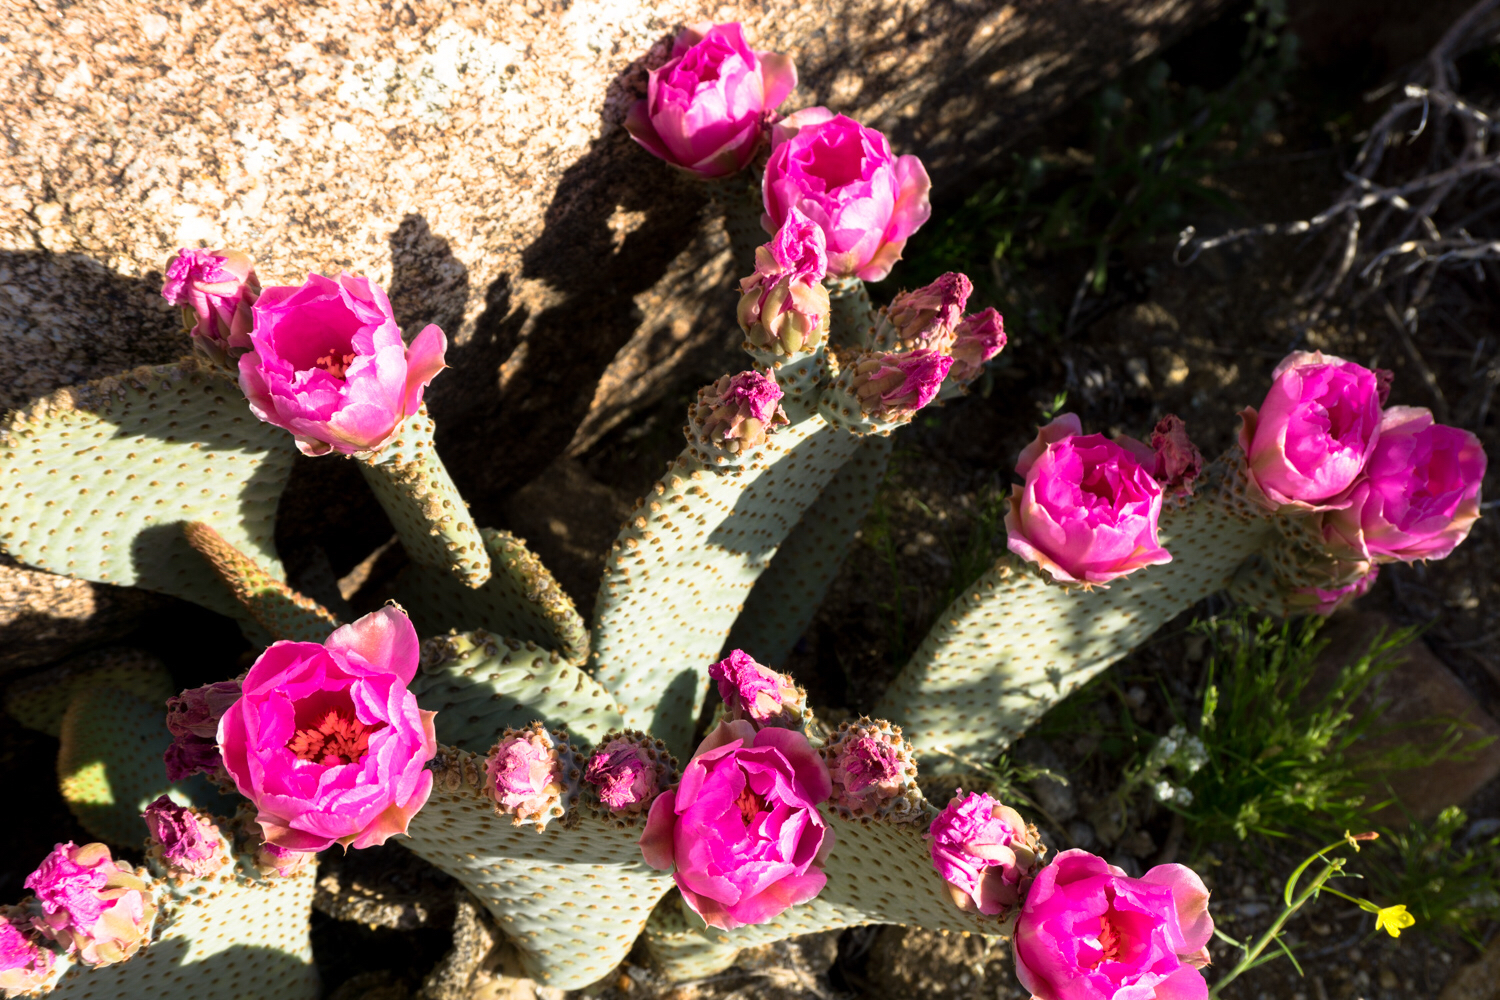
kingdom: Plantae
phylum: Tracheophyta
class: Magnoliopsida
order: Caryophyllales
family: Cactaceae
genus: Opuntia
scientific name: Opuntia basilaris
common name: Beavertail prickly-pear
